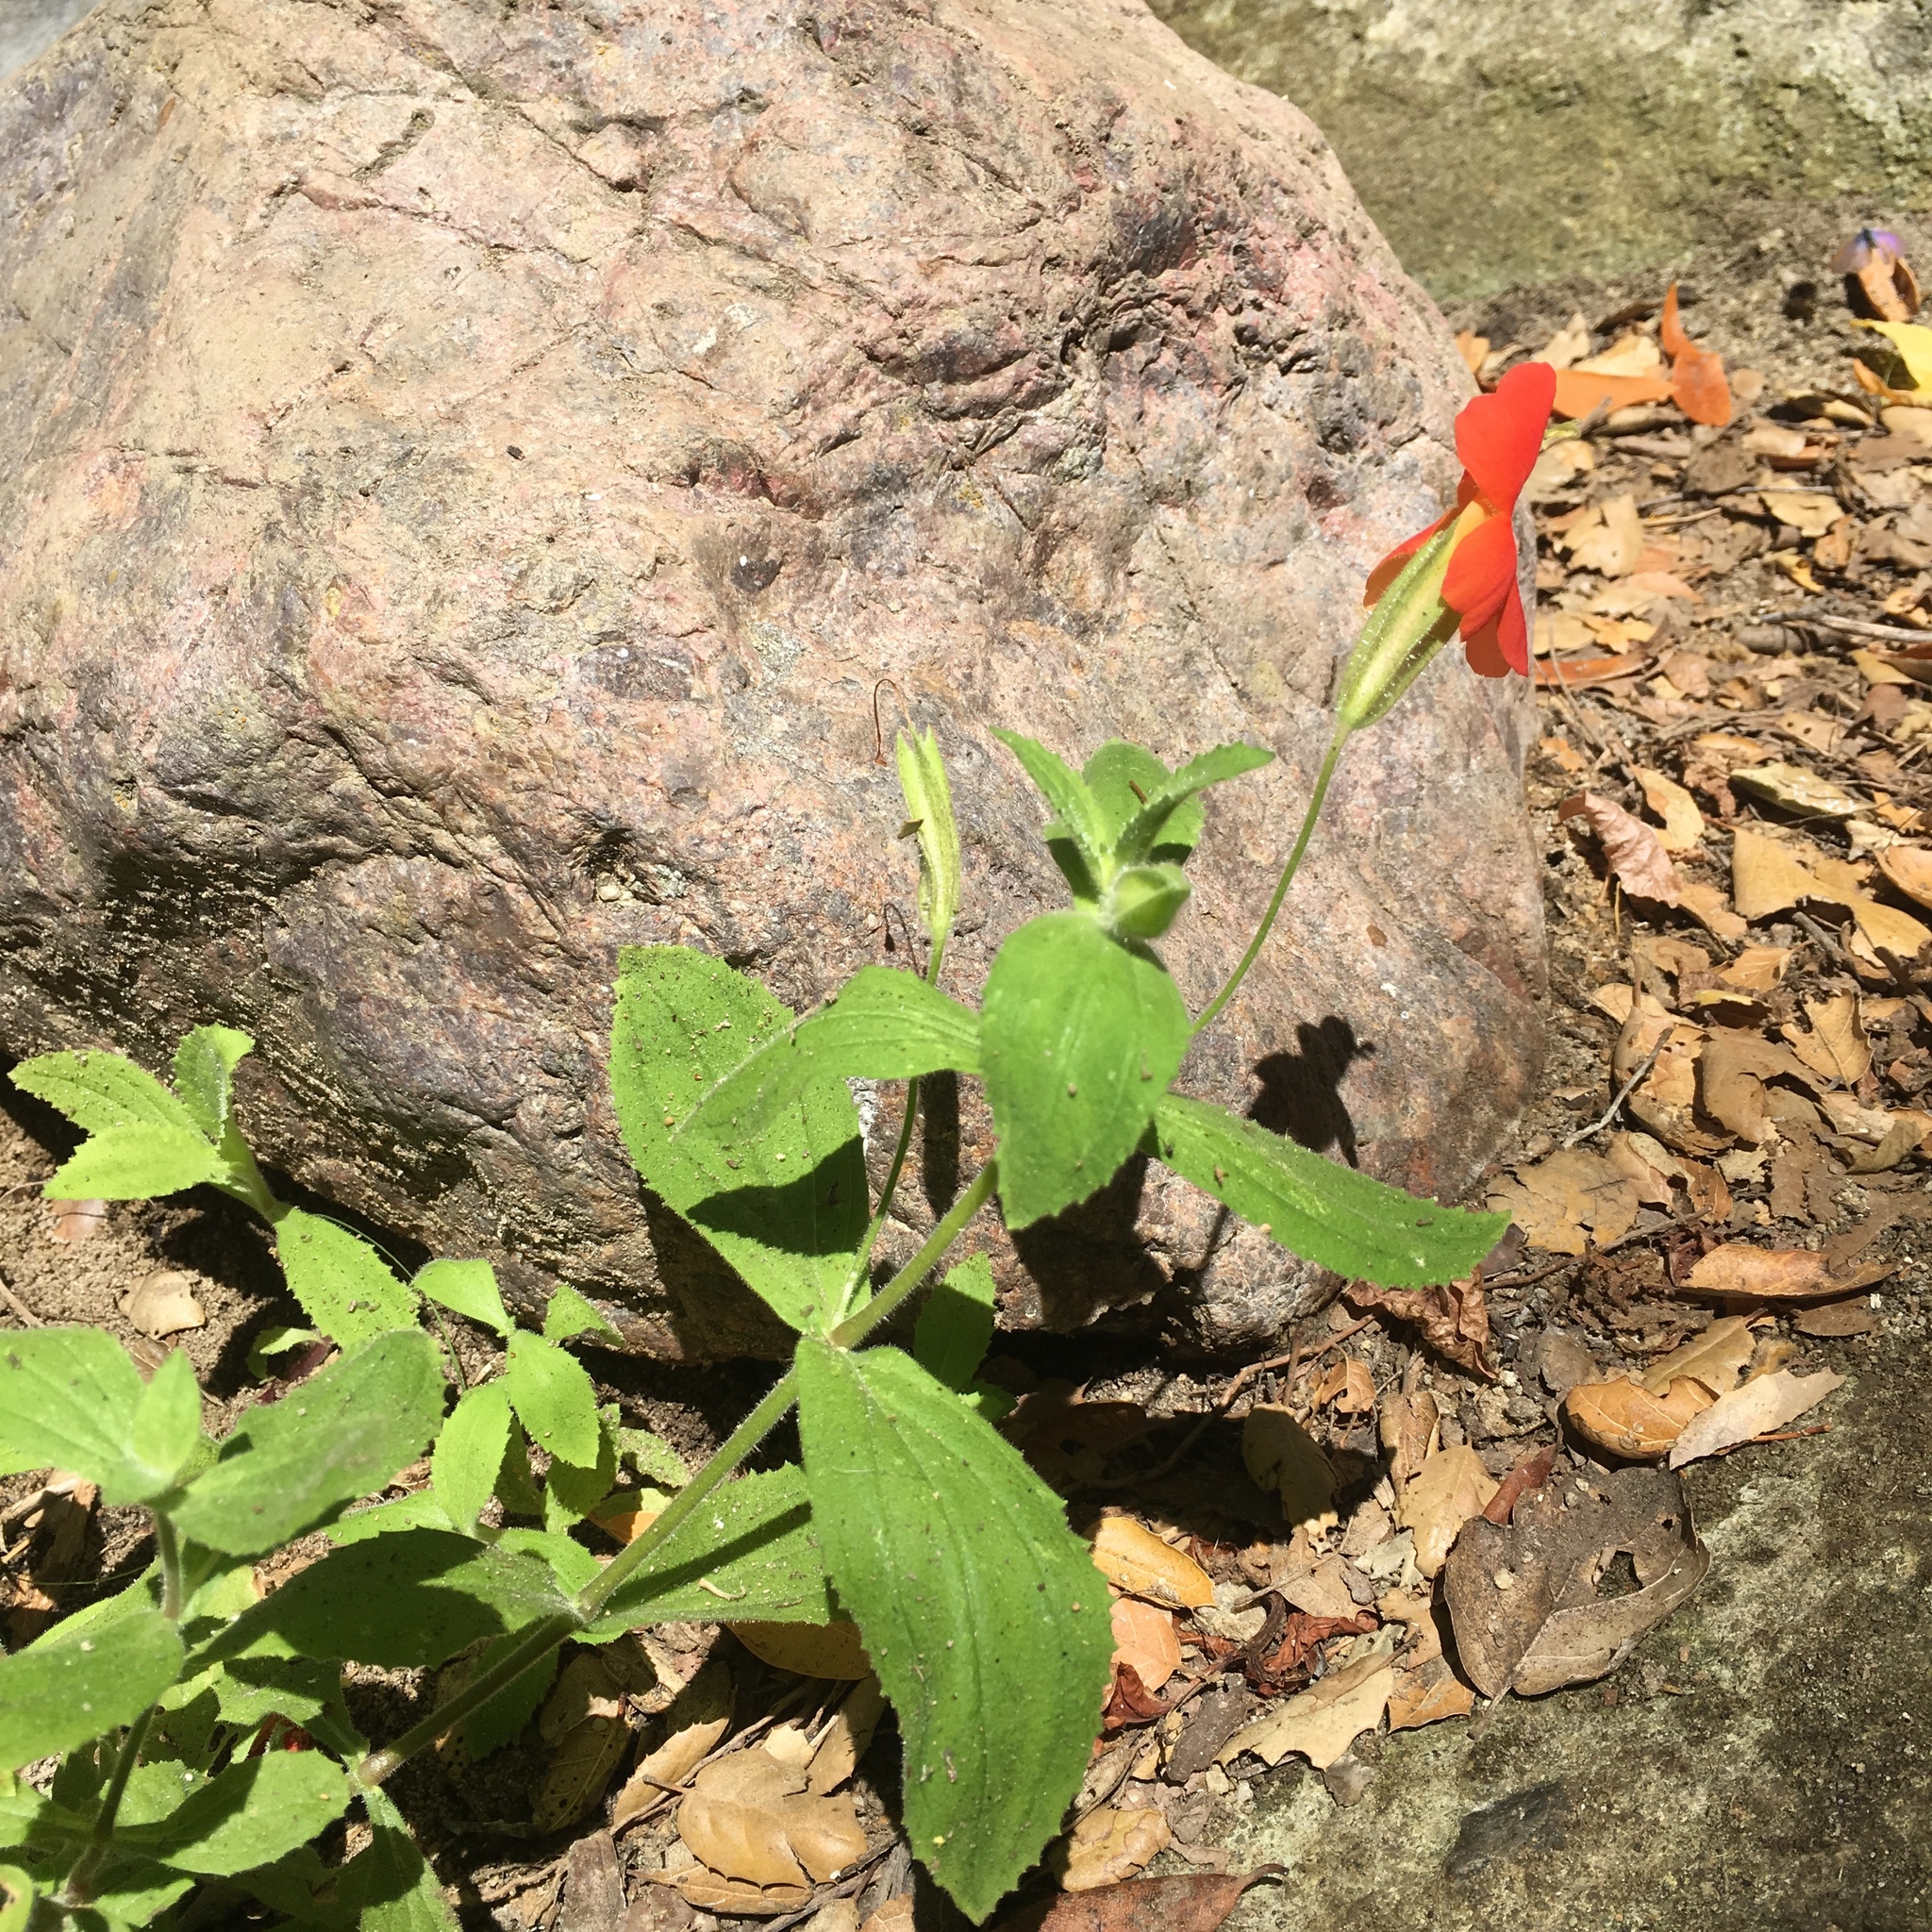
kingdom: Plantae
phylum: Tracheophyta
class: Magnoliopsida
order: Lamiales
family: Phrymaceae
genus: Erythranthe
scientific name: Erythranthe cardinalis
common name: Scarlet monkey-flower
